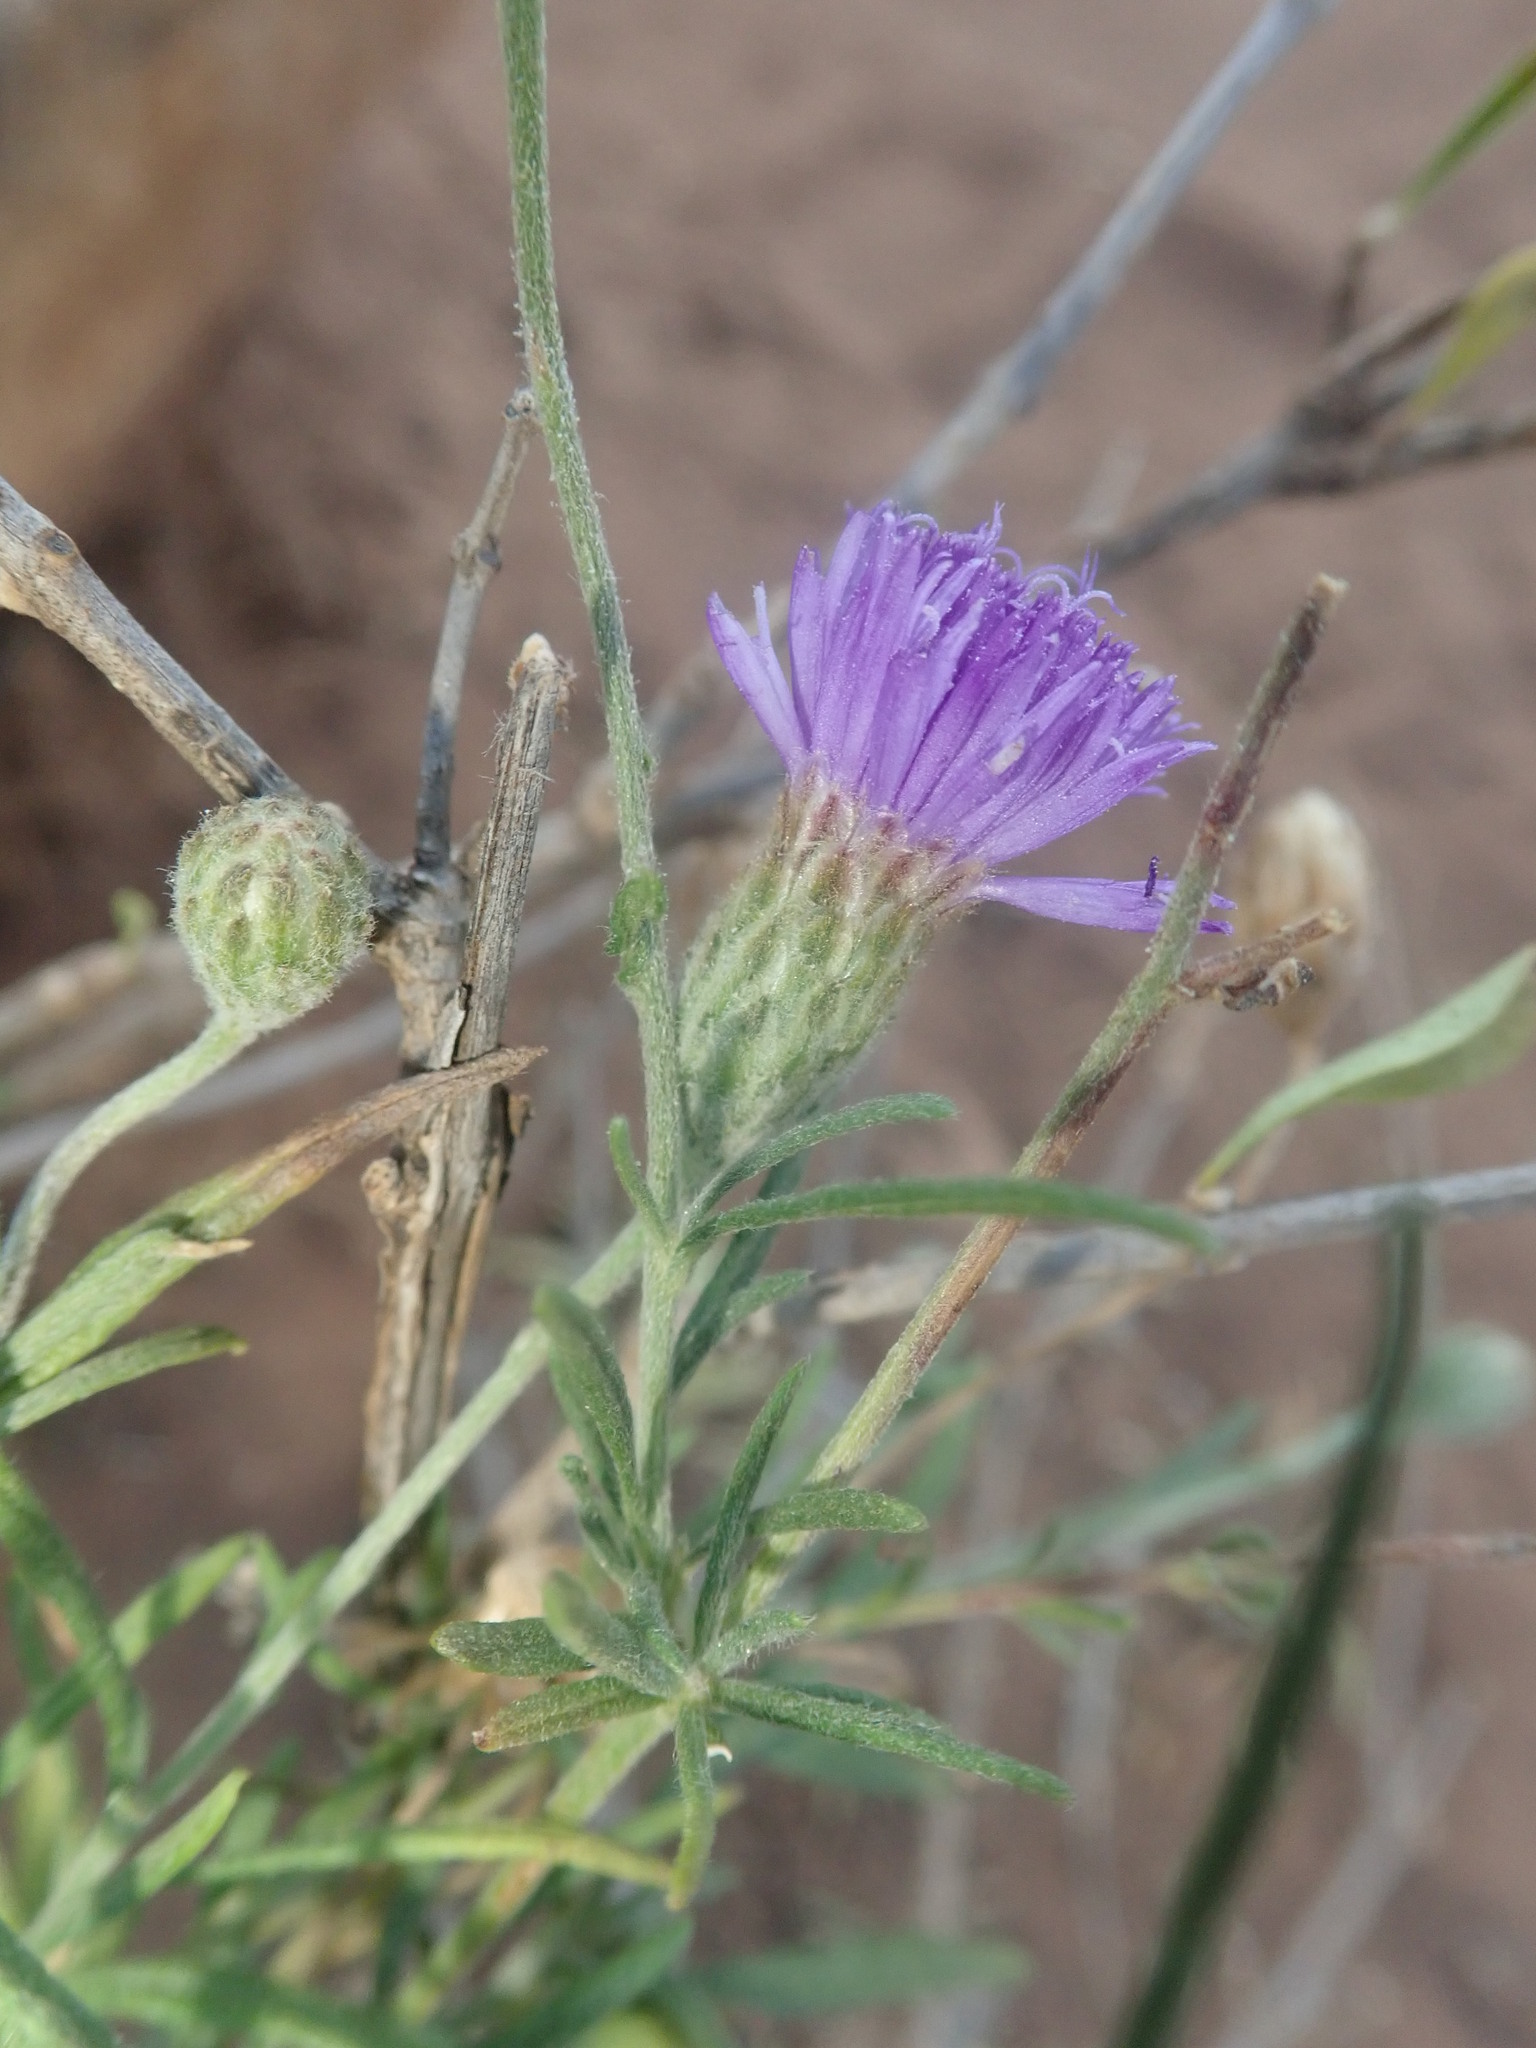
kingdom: Plantae
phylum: Tracheophyta
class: Magnoliopsida
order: Asterales
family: Asteraceae
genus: Crystallopollen
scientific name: Crystallopollen angustifolium
